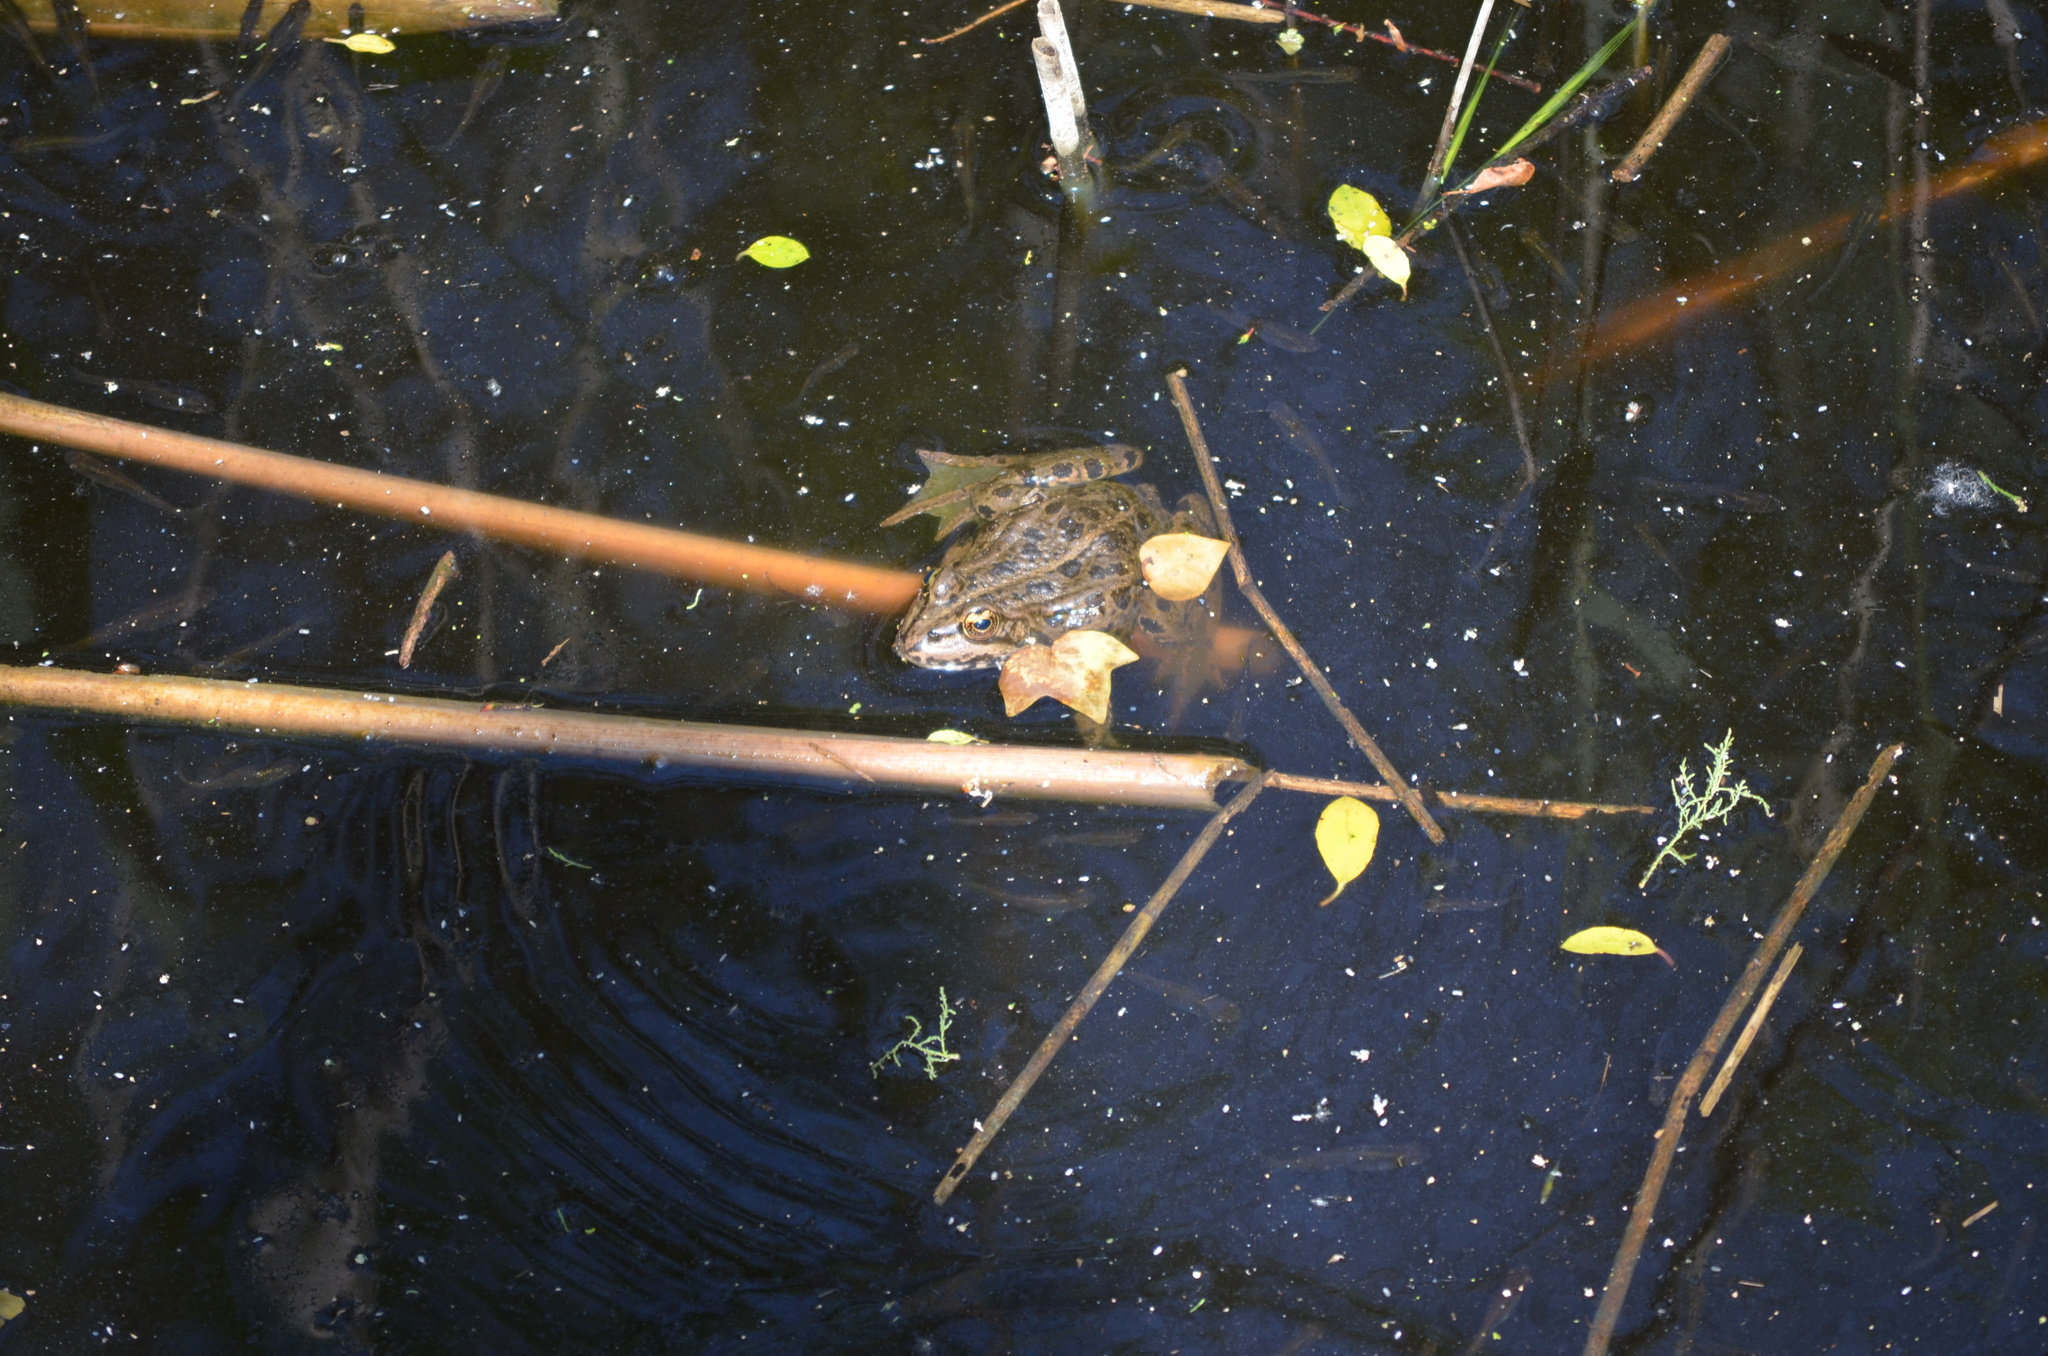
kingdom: Animalia
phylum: Chordata
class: Amphibia
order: Anura
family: Ranidae
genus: Pelophylax
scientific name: Pelophylax perezi
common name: Perez's frog
